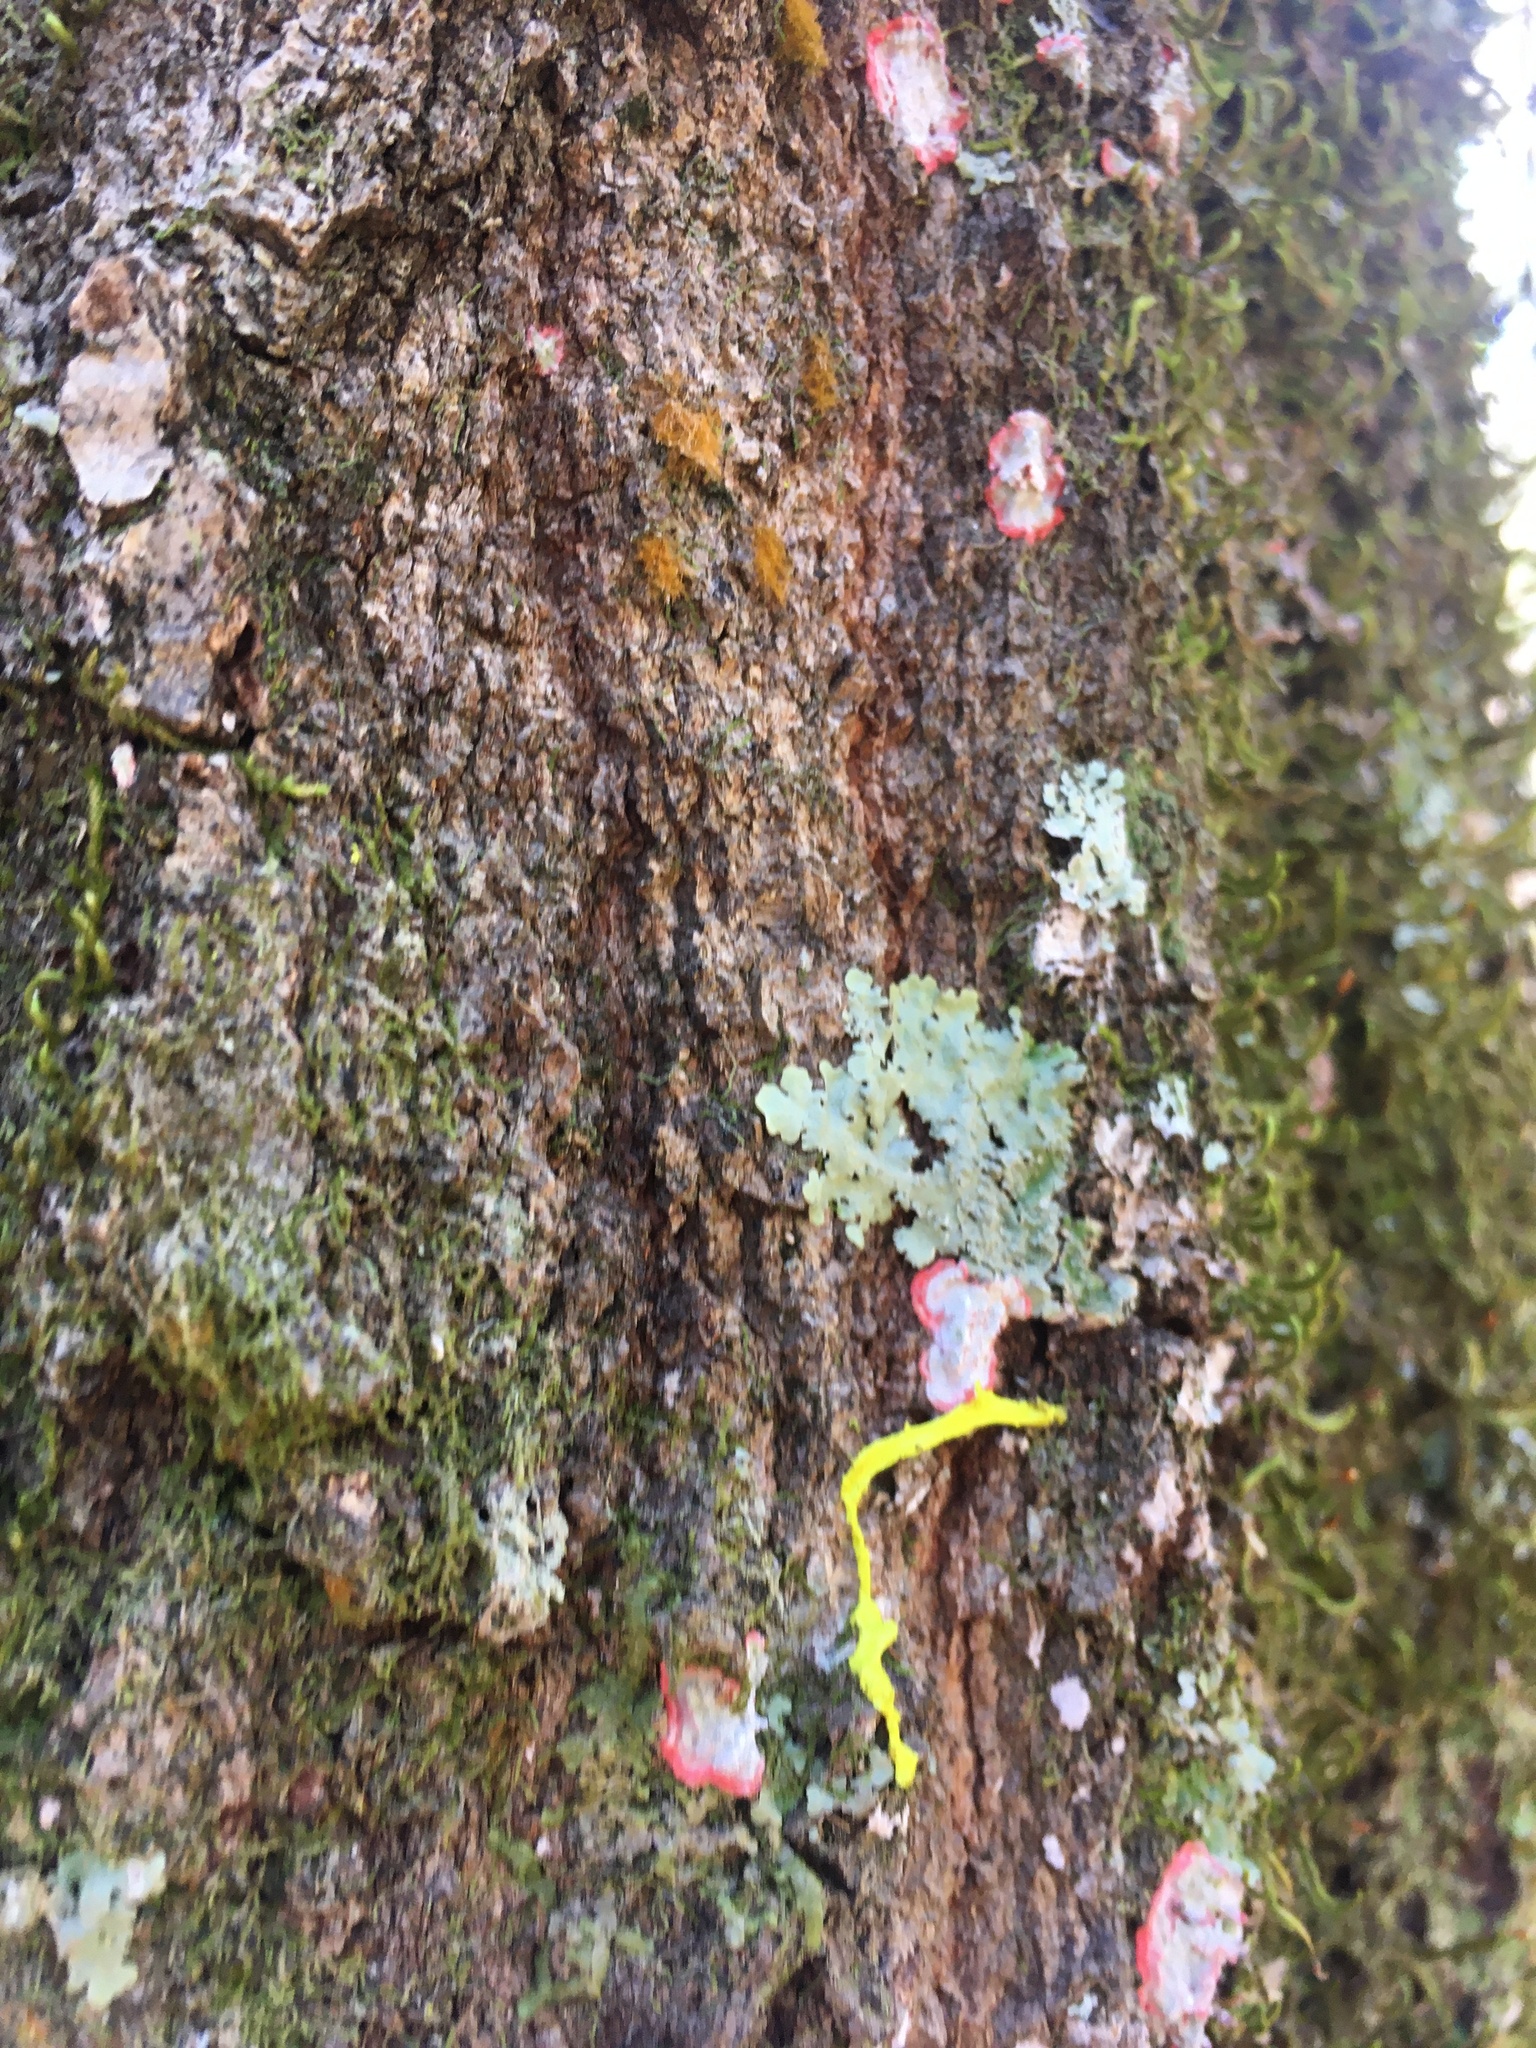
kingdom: Fungi
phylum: Ascomycota
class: Arthoniomycetes
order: Arthoniales
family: Arthoniaceae
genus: Herpothallon
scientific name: Herpothallon rubrocinctum
